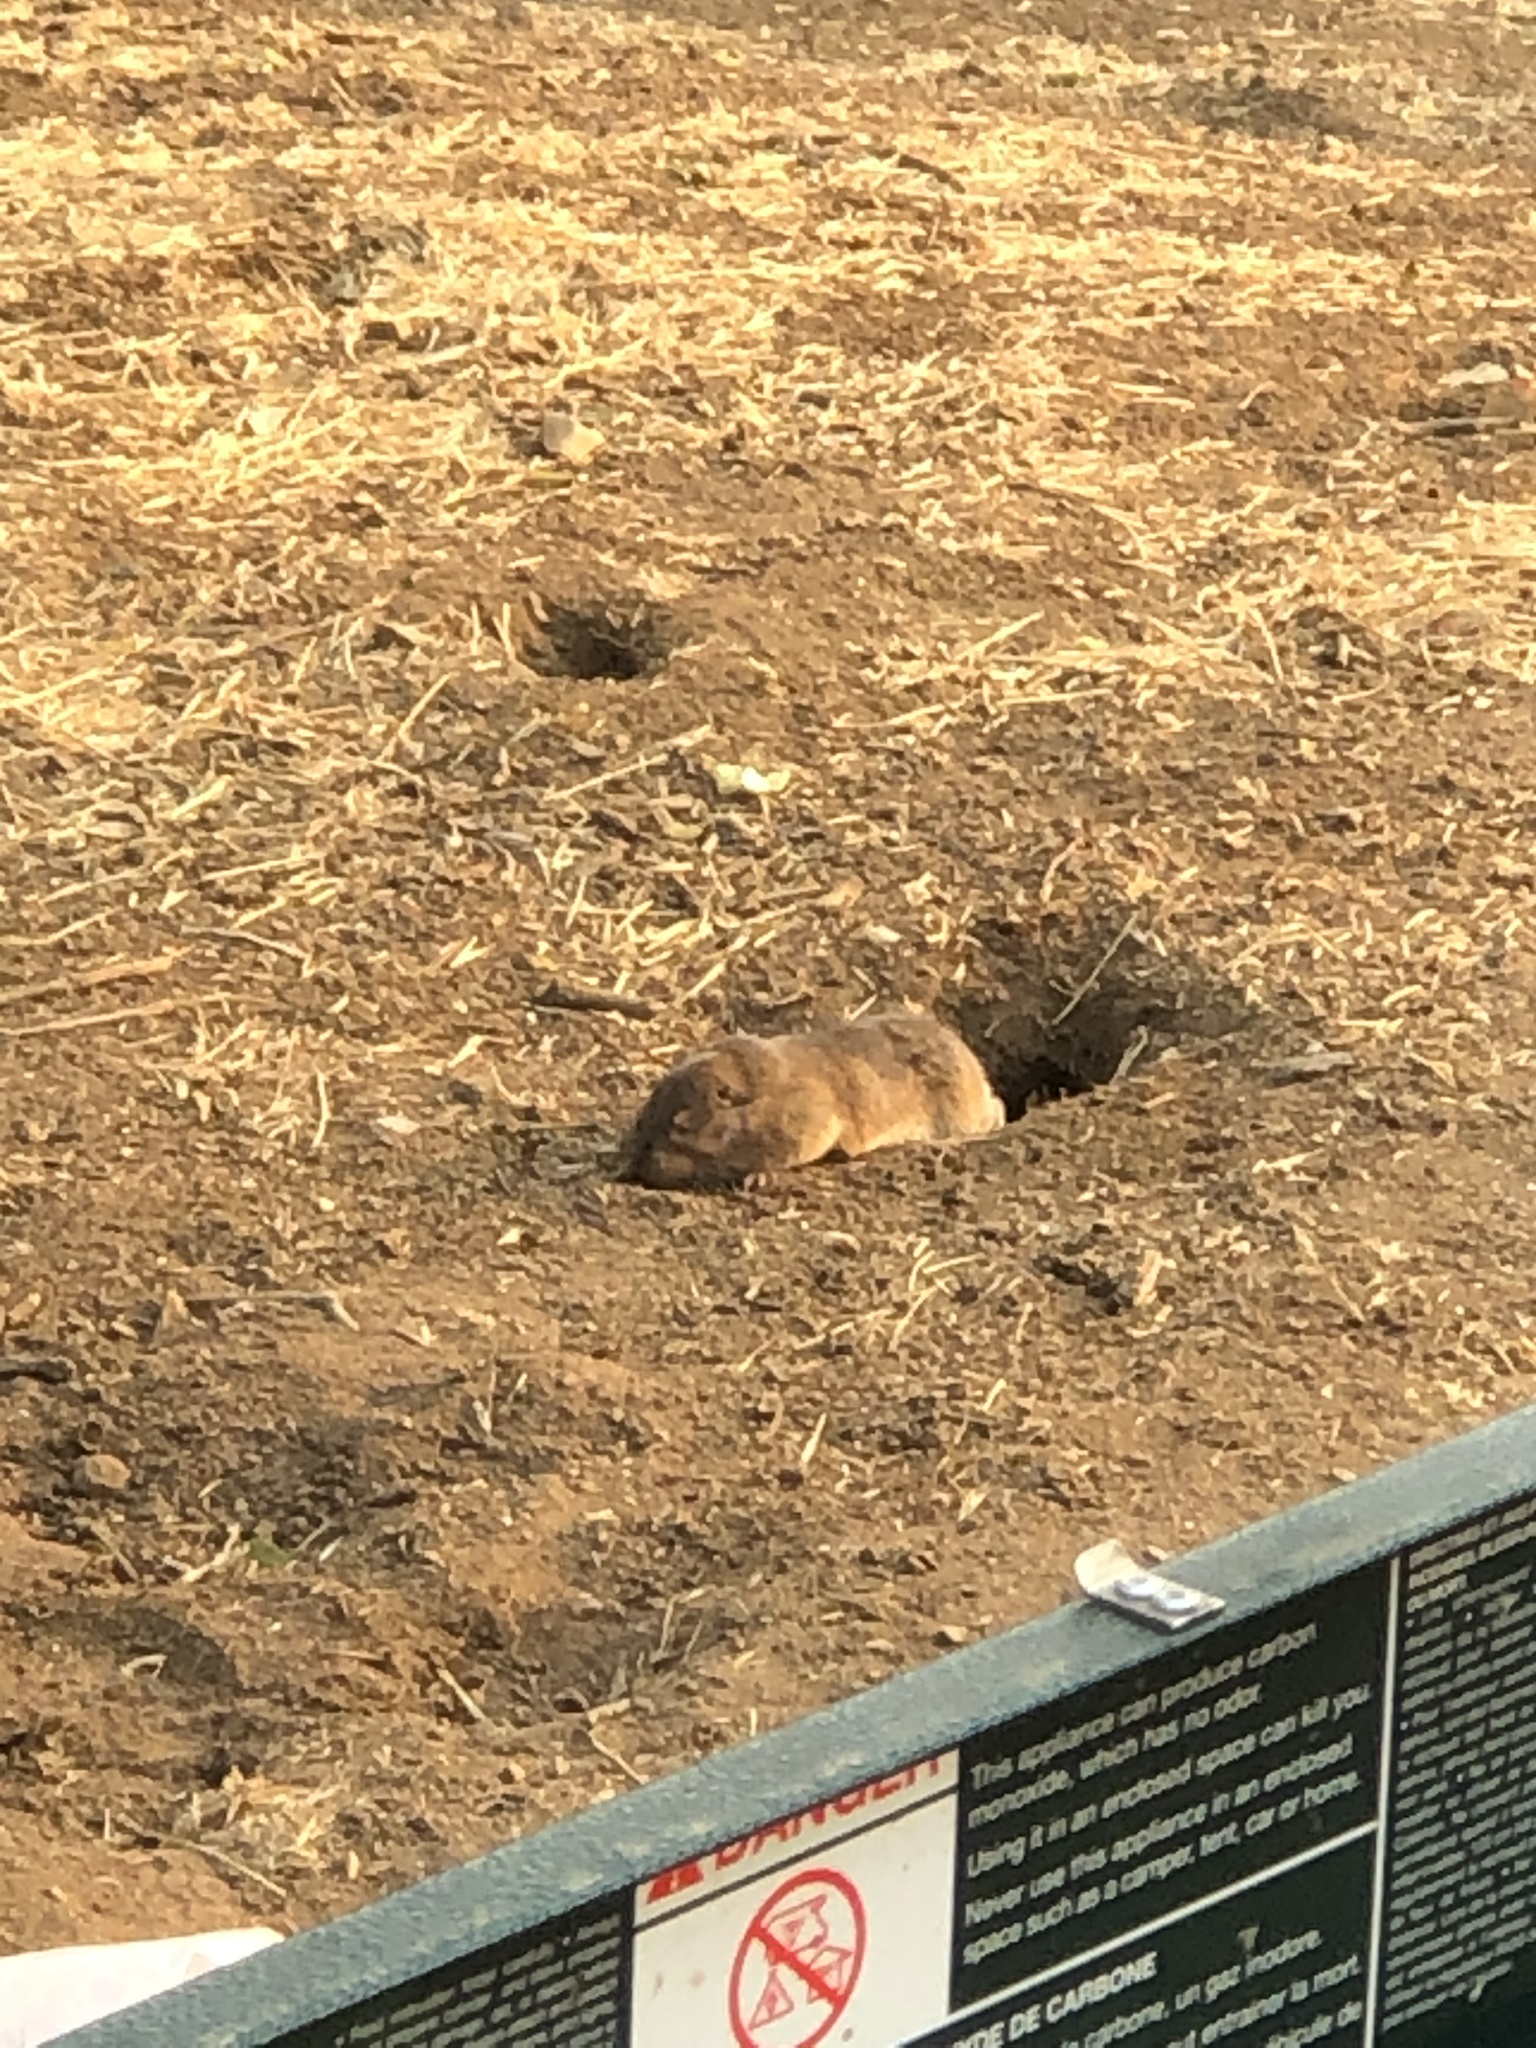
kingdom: Animalia
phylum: Chordata
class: Mammalia
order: Rodentia
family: Geomyidae
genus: Thomomys
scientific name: Thomomys bottae
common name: Botta's pocket gopher
